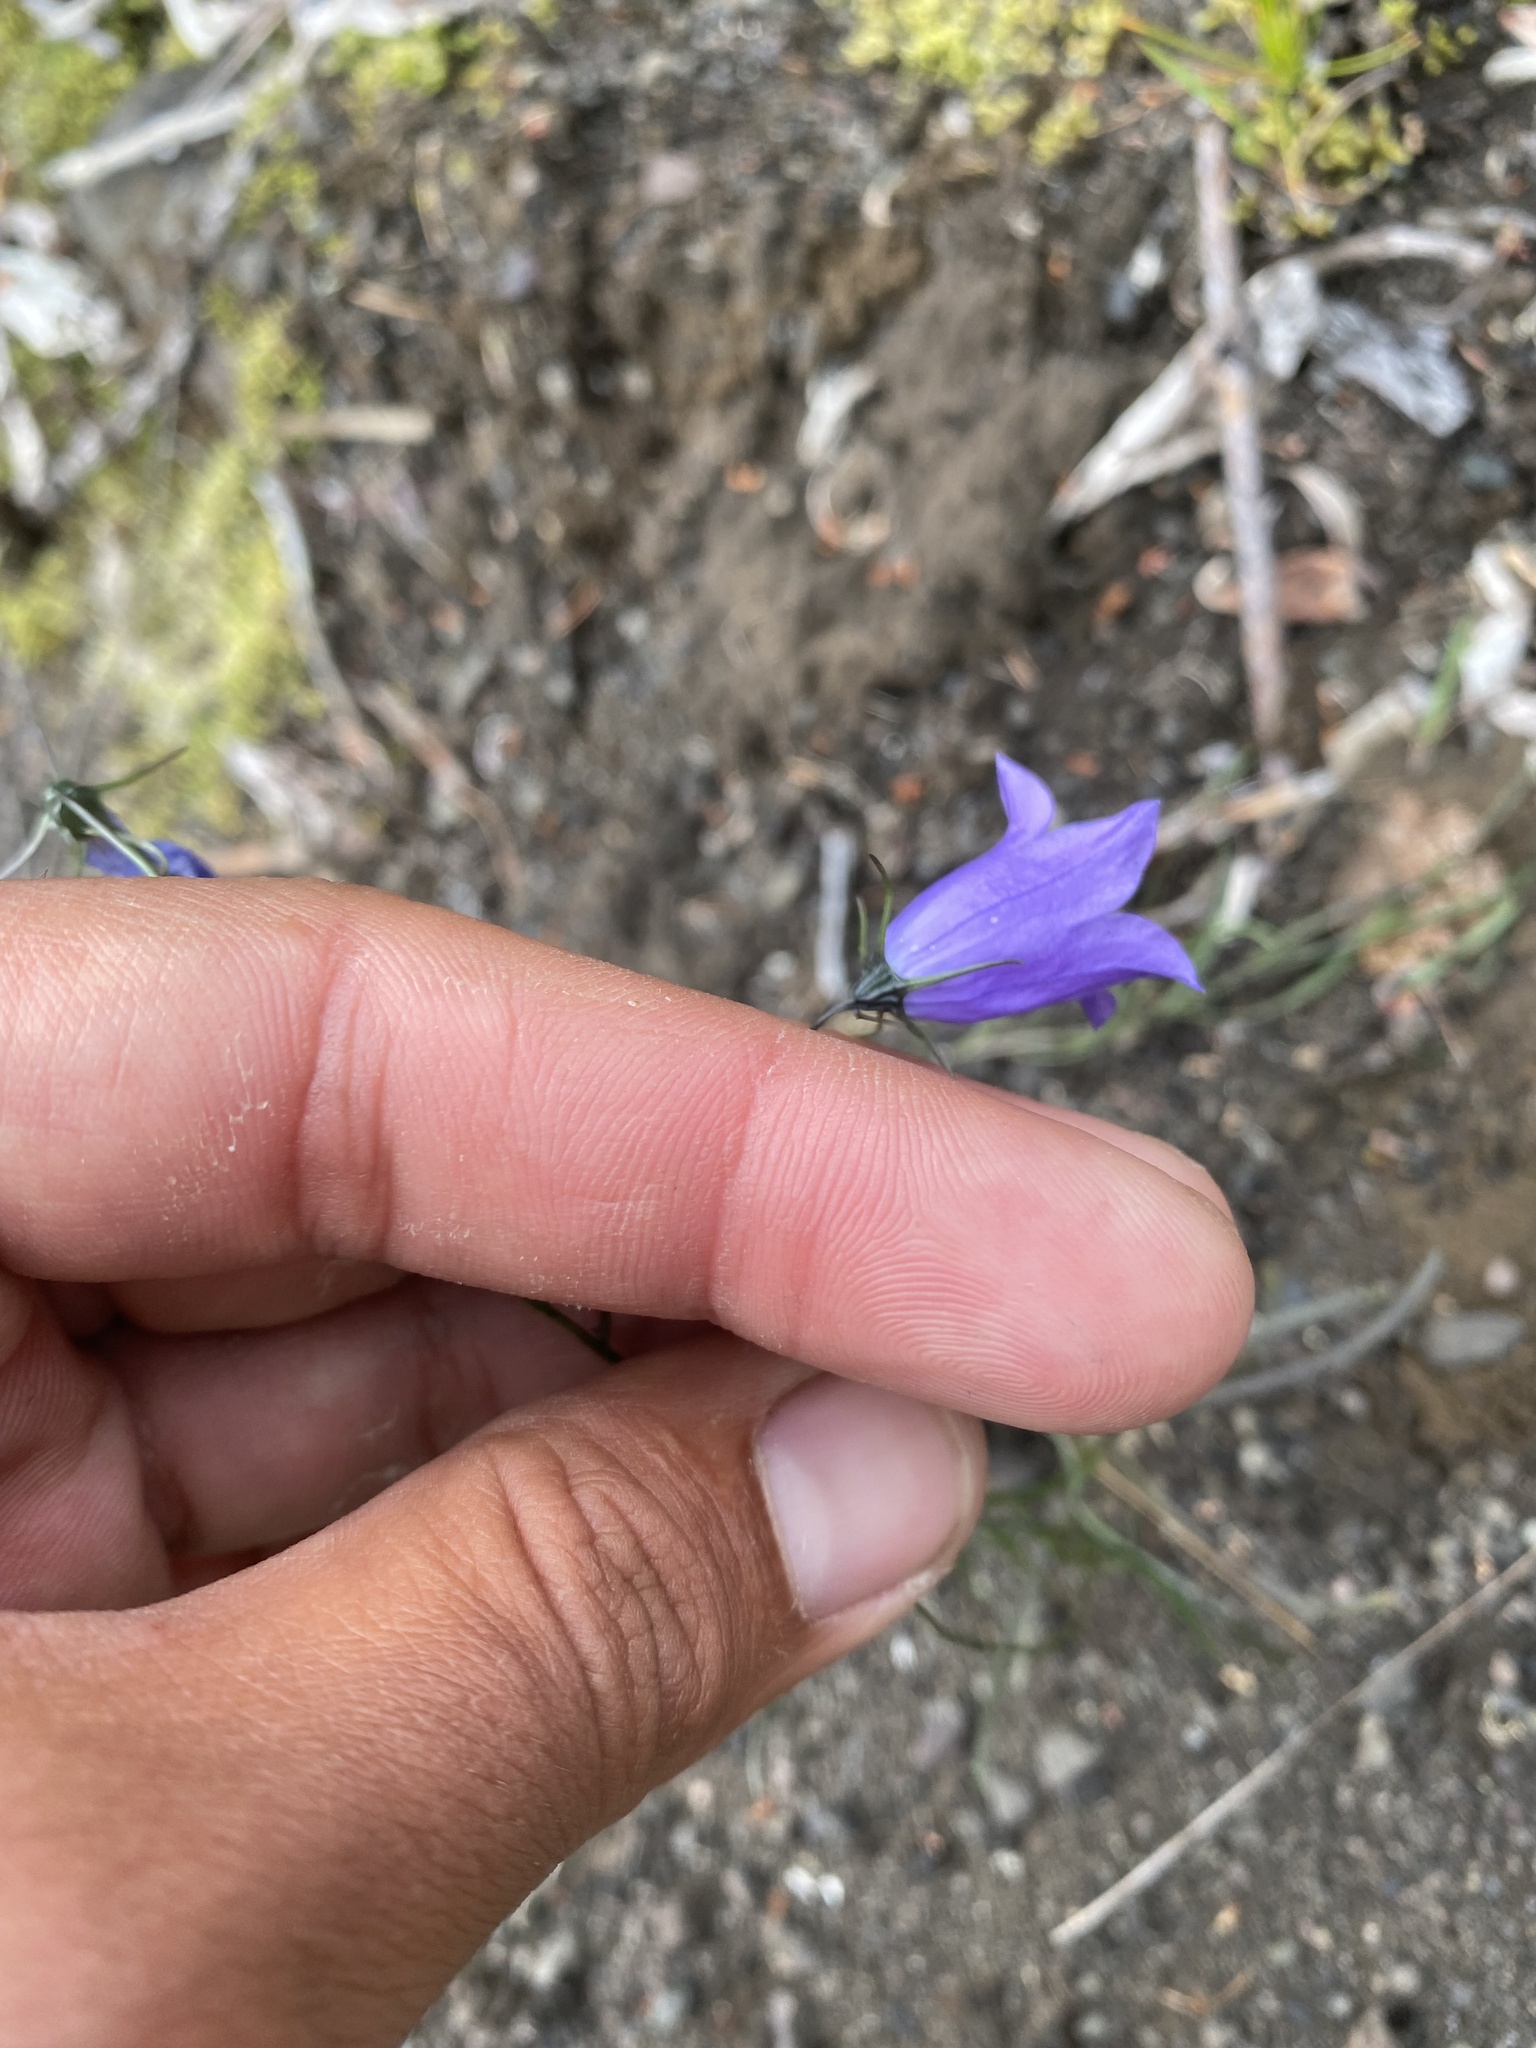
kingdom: Plantae
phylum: Tracheophyta
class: Magnoliopsida
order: Asterales
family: Campanulaceae
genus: Campanula
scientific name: Campanula rotundifolia
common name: Harebell
